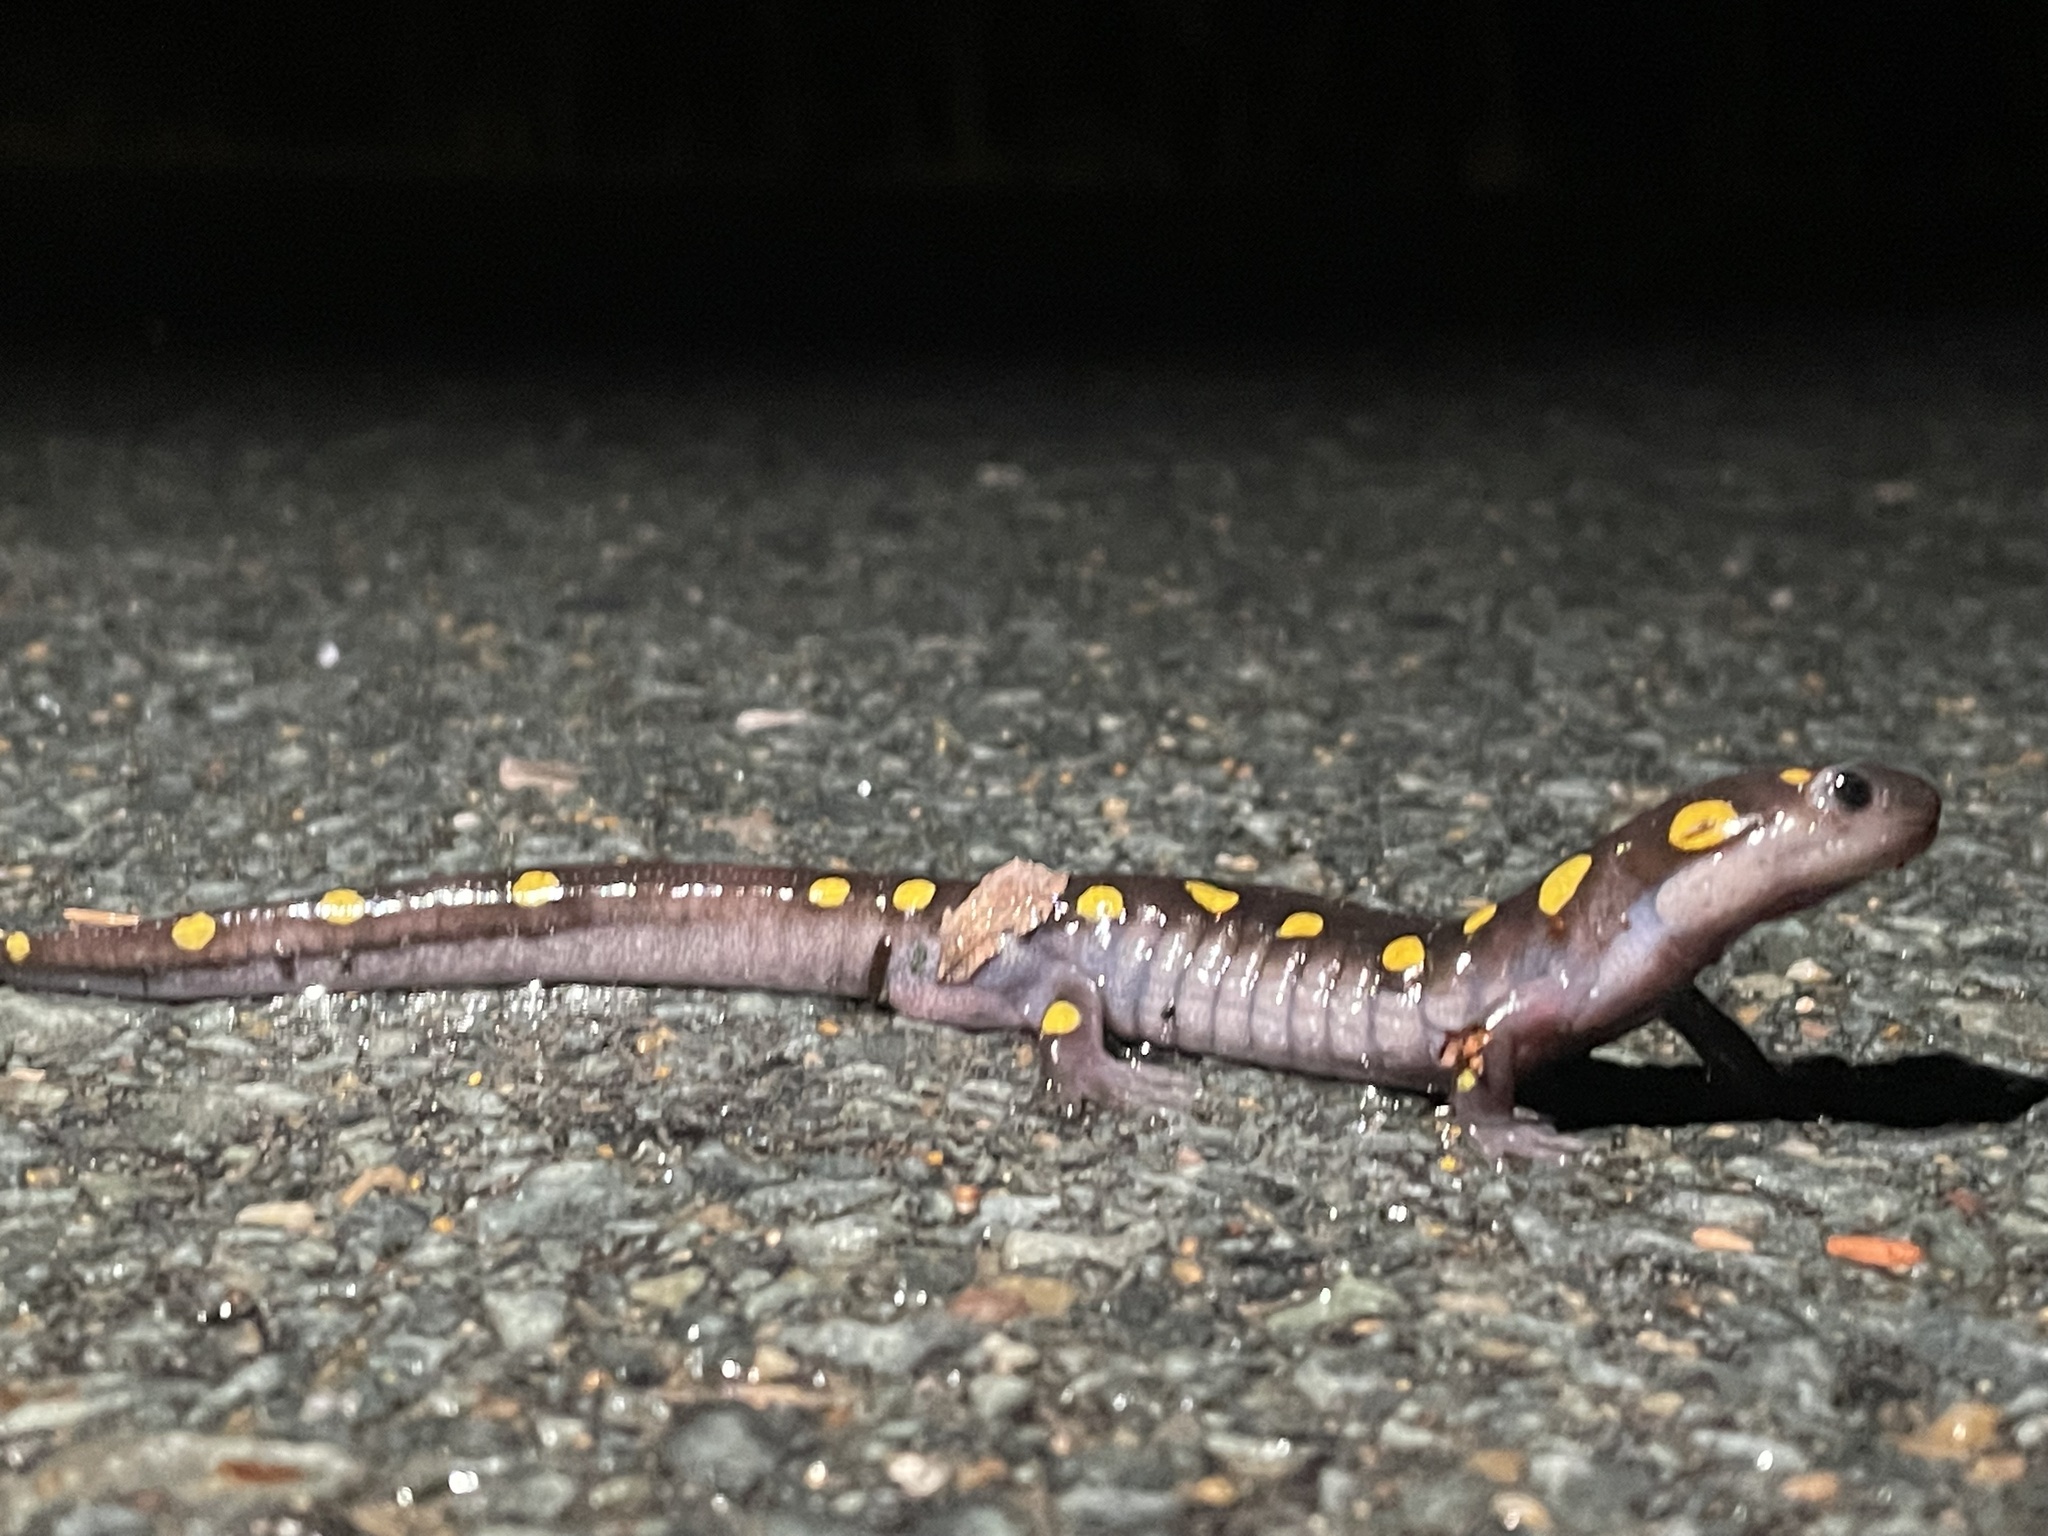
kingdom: Animalia
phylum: Chordata
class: Amphibia
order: Caudata
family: Ambystomatidae
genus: Ambystoma
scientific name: Ambystoma maculatum
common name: Spotted salamander
